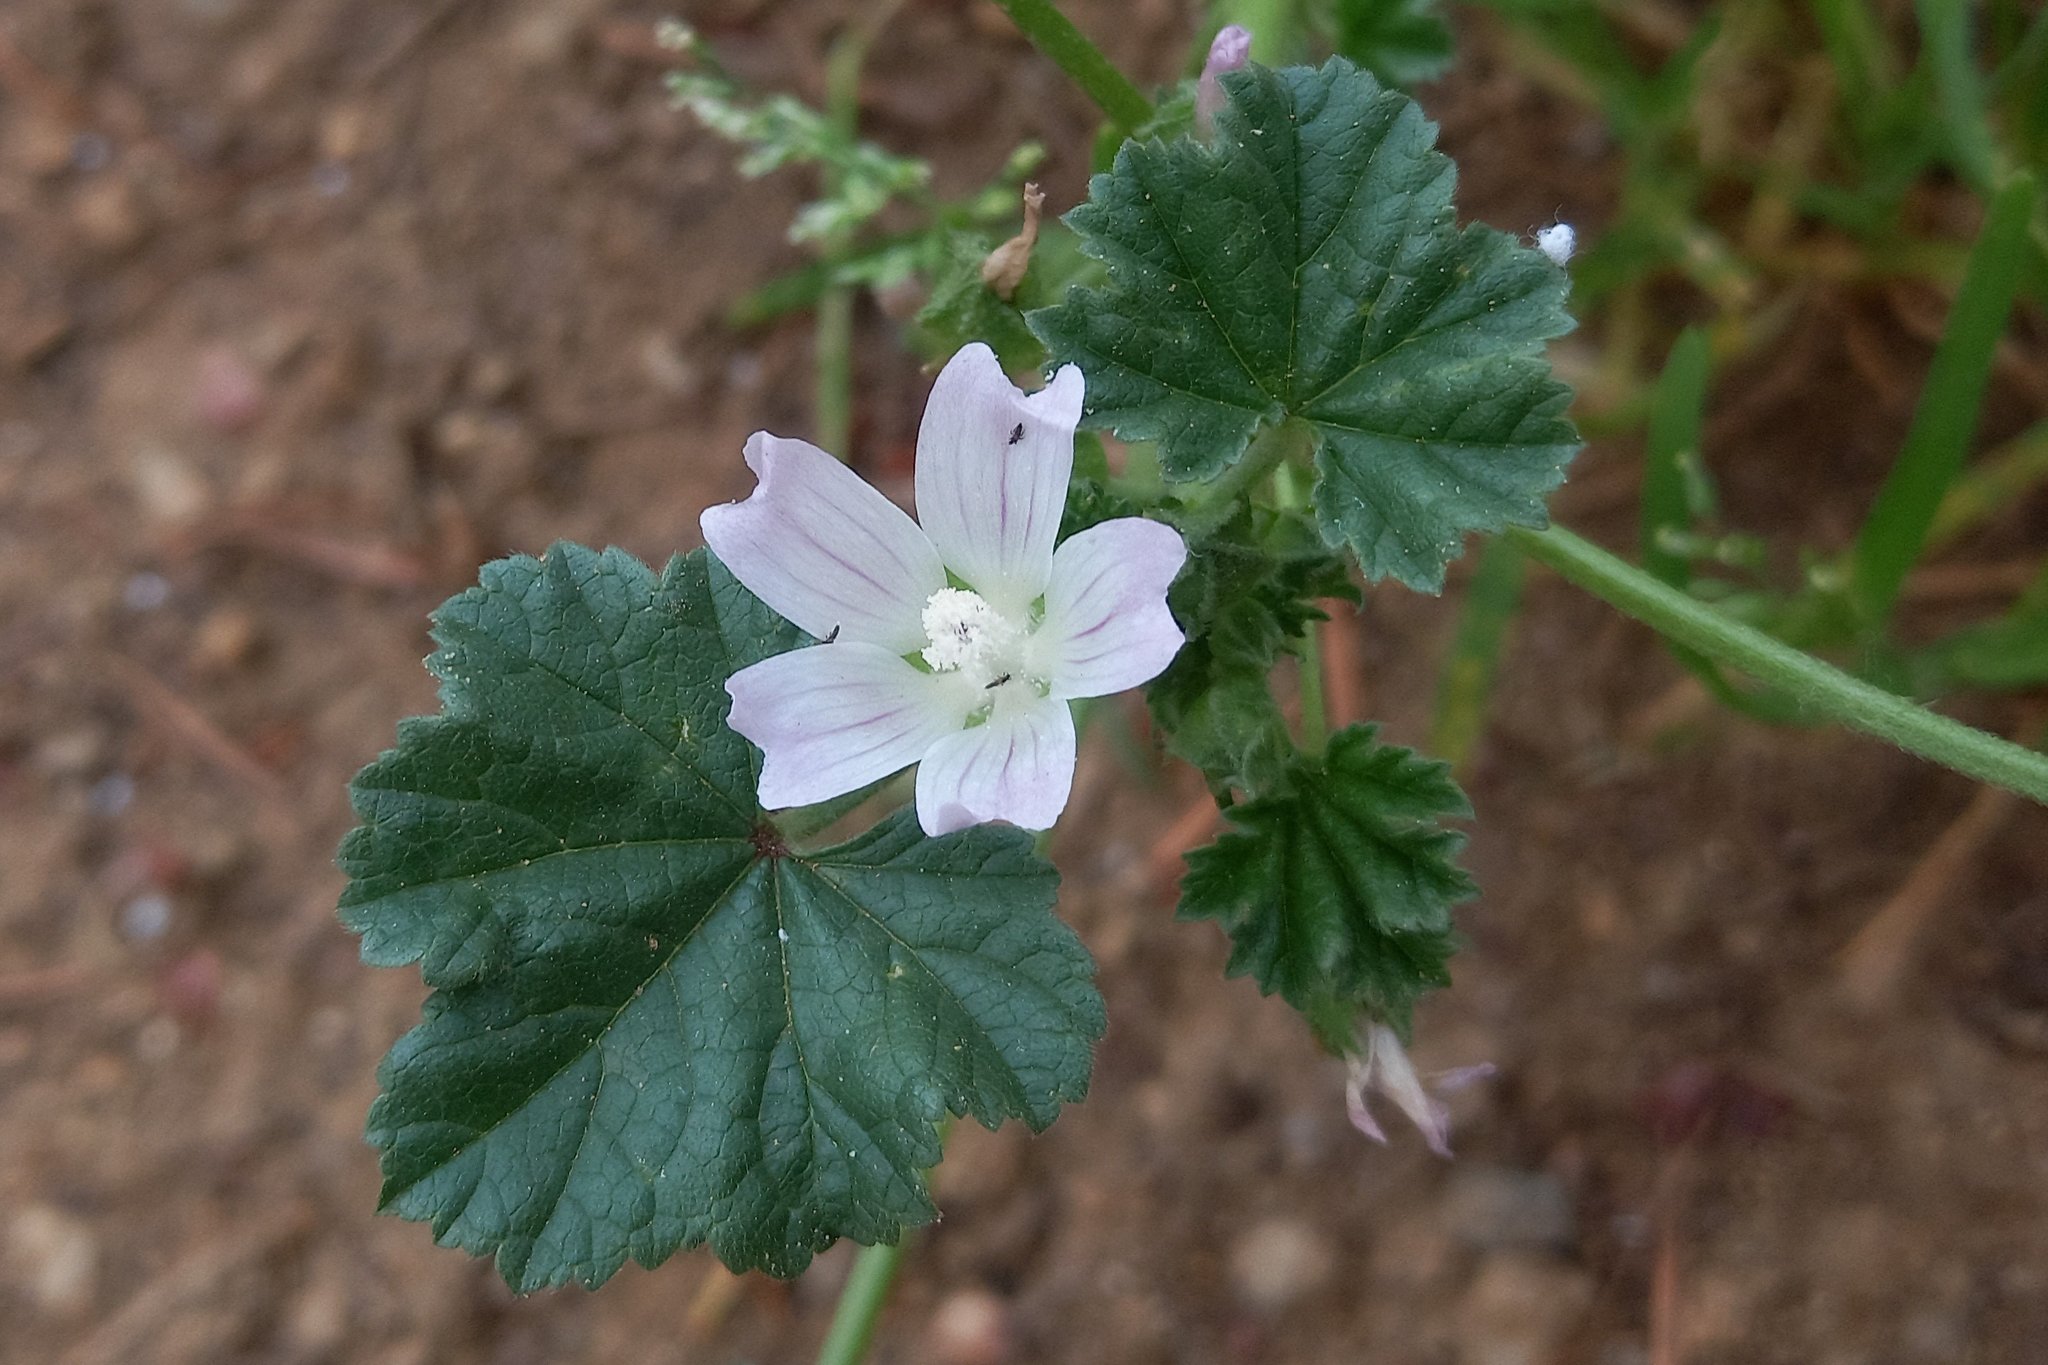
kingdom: Plantae
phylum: Tracheophyta
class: Magnoliopsida
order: Malvales
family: Malvaceae
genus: Malva
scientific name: Malva neglecta
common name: Common mallow
